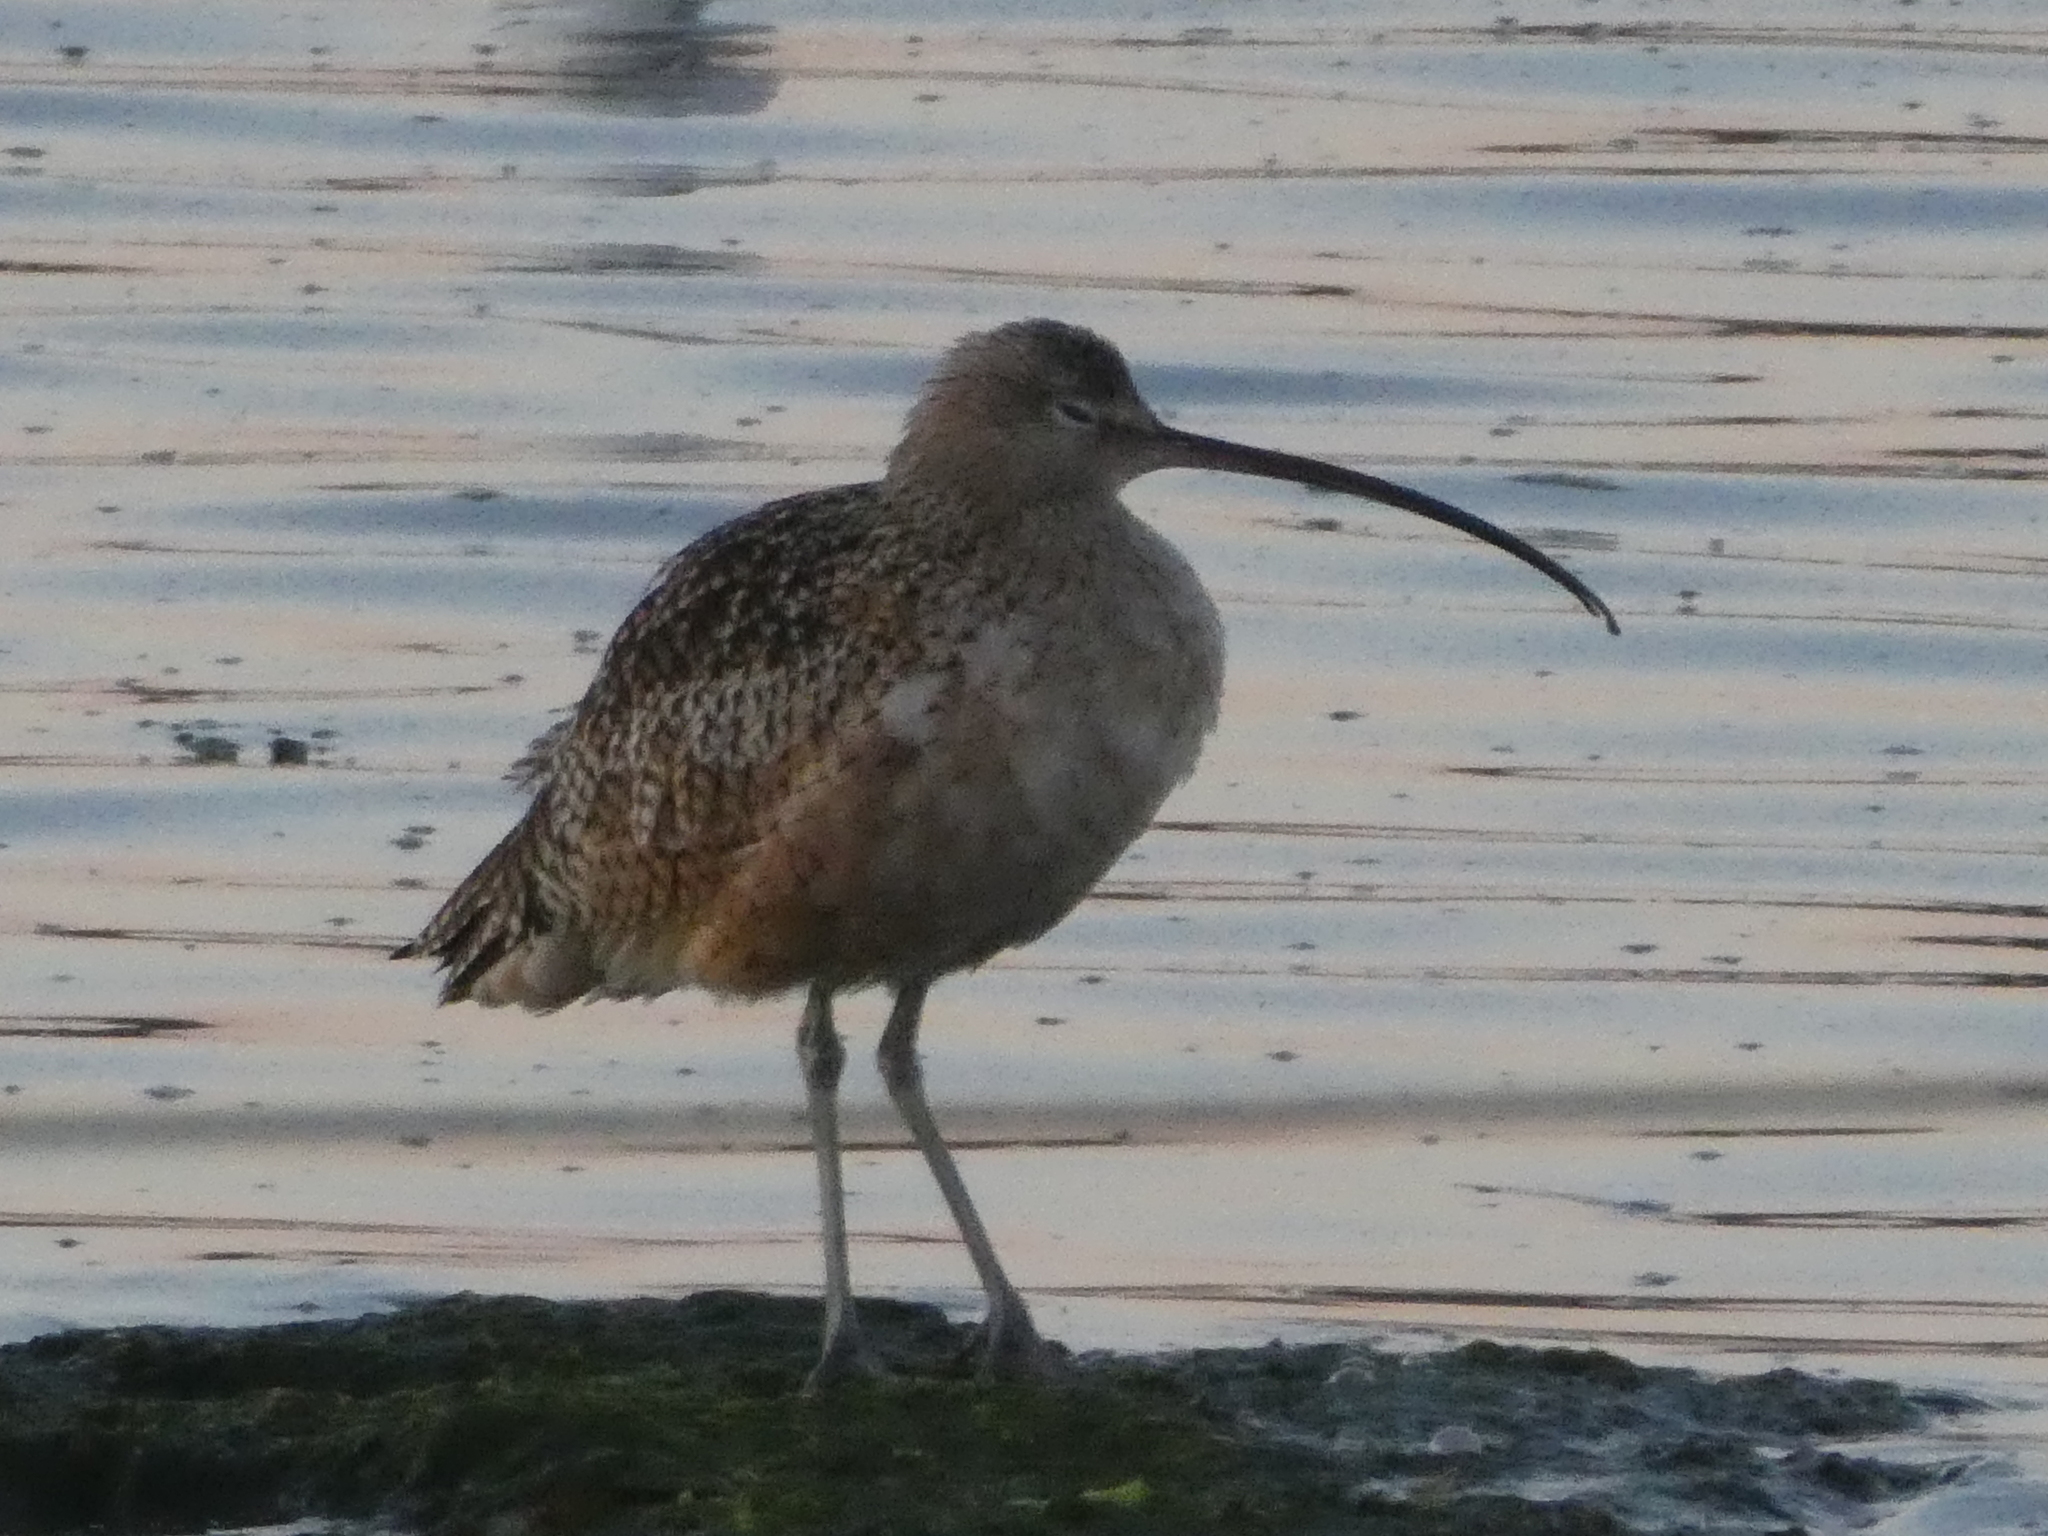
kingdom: Animalia
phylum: Chordata
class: Aves
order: Charadriiformes
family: Scolopacidae
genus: Numenius
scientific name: Numenius americanus
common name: Long-billed curlew
